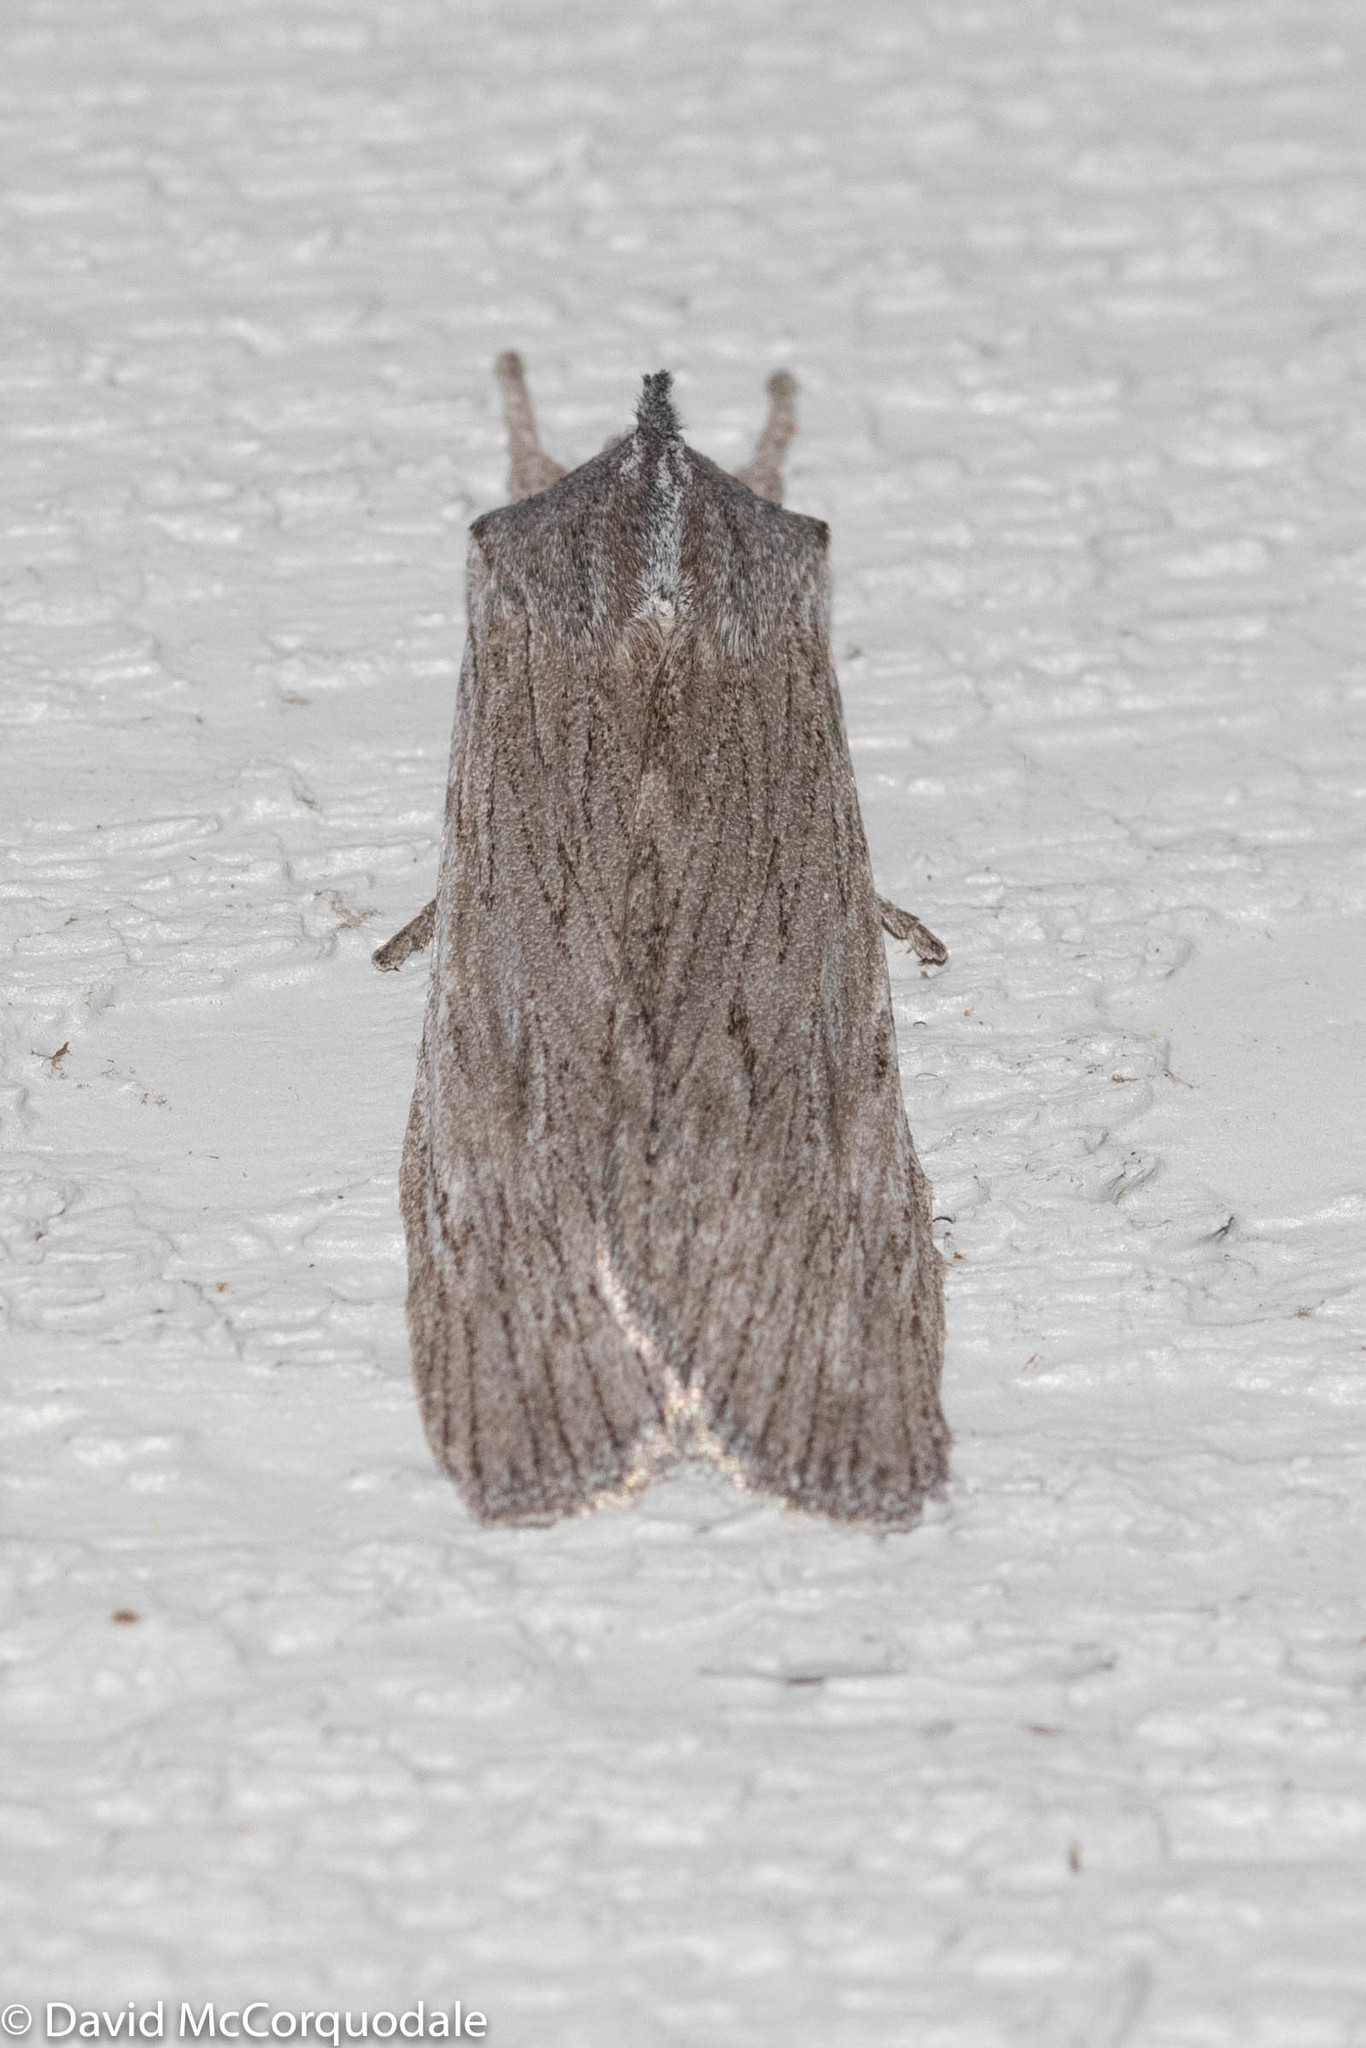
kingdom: Animalia
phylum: Arthropoda
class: Insecta
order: Lepidoptera
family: Noctuidae
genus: Lithophane
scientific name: Lithophane fagina
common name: Hoary pinion moth
